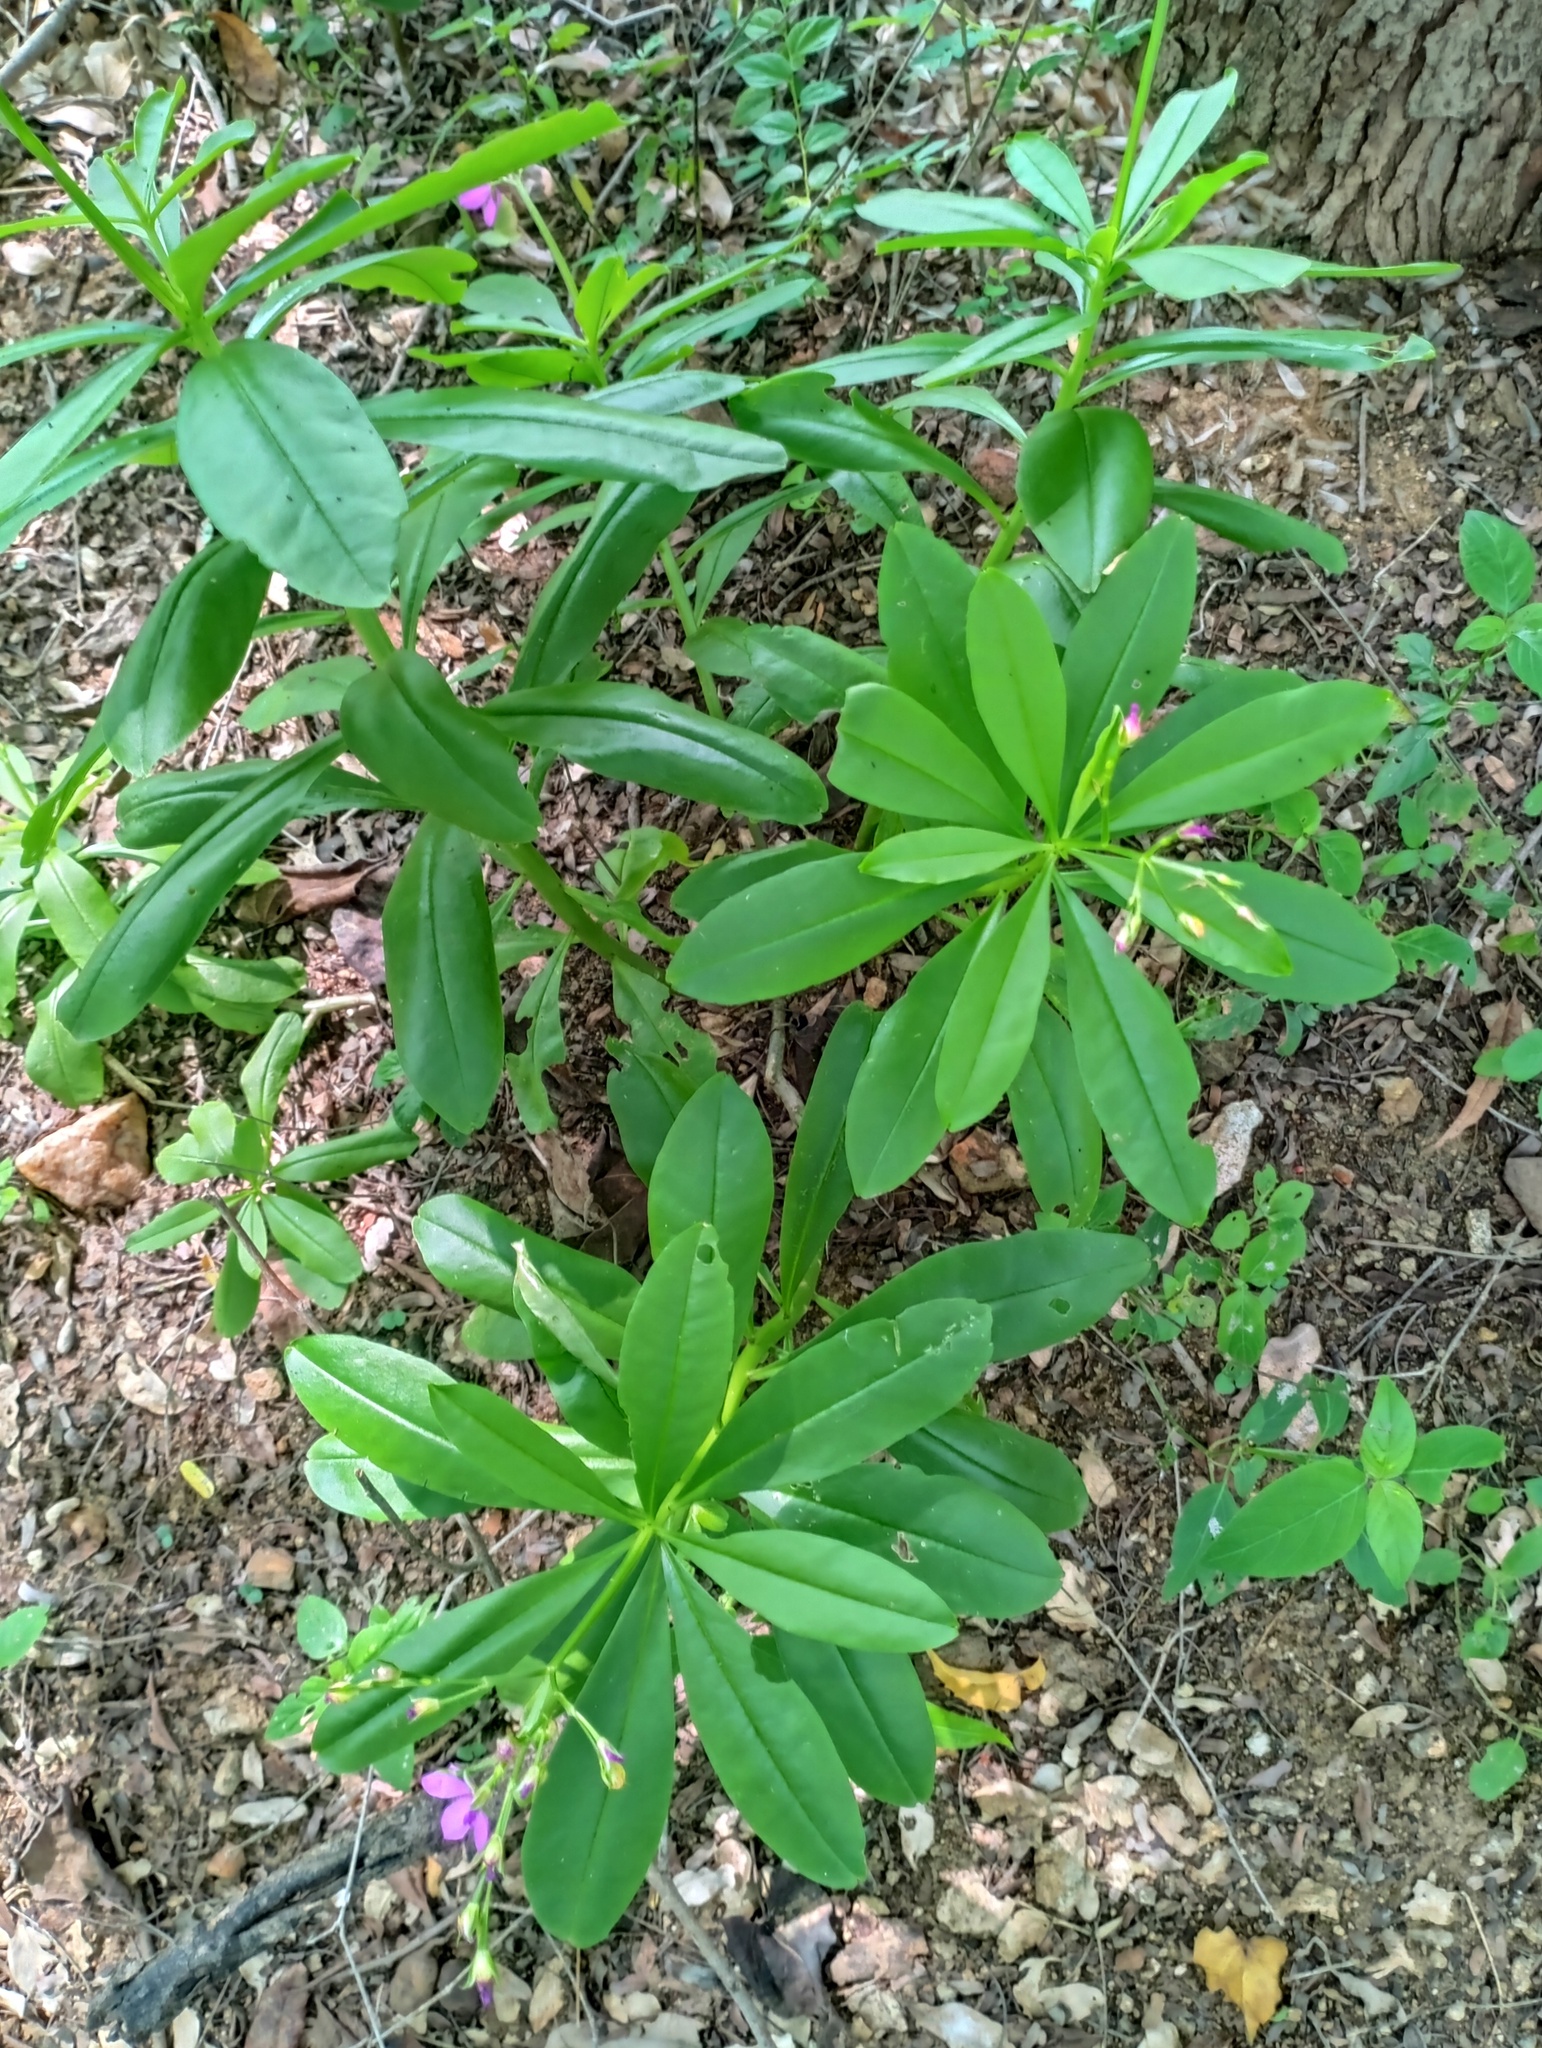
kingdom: Plantae
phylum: Tracheophyta
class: Magnoliopsida
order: Caryophyllales
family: Talinaceae
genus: Talinum
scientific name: Talinum fruticosum
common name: Verdolaga-francesa
